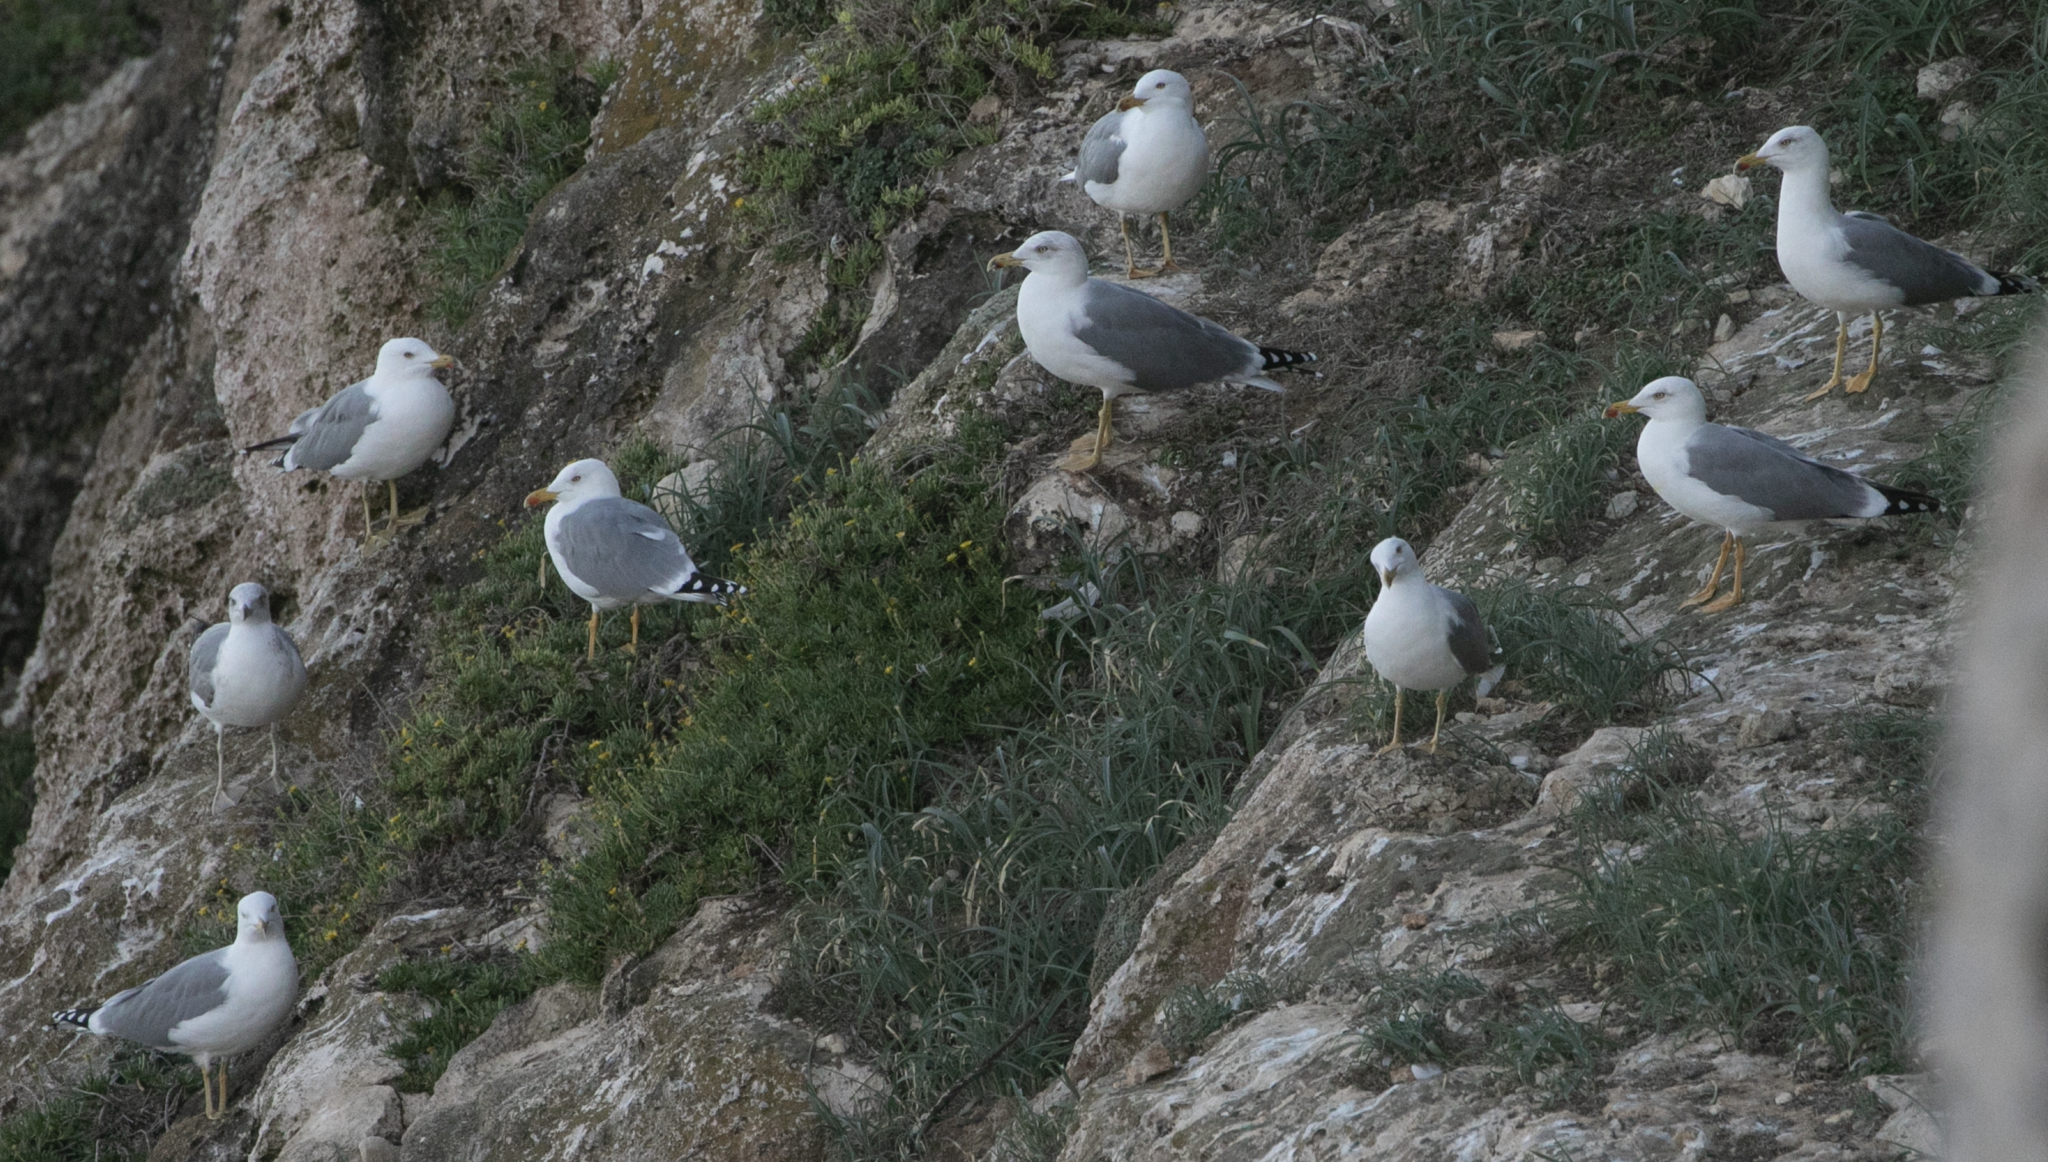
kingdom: Animalia
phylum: Chordata
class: Aves
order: Charadriiformes
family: Laridae
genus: Larus
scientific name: Larus michahellis
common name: Yellow-legged gull
